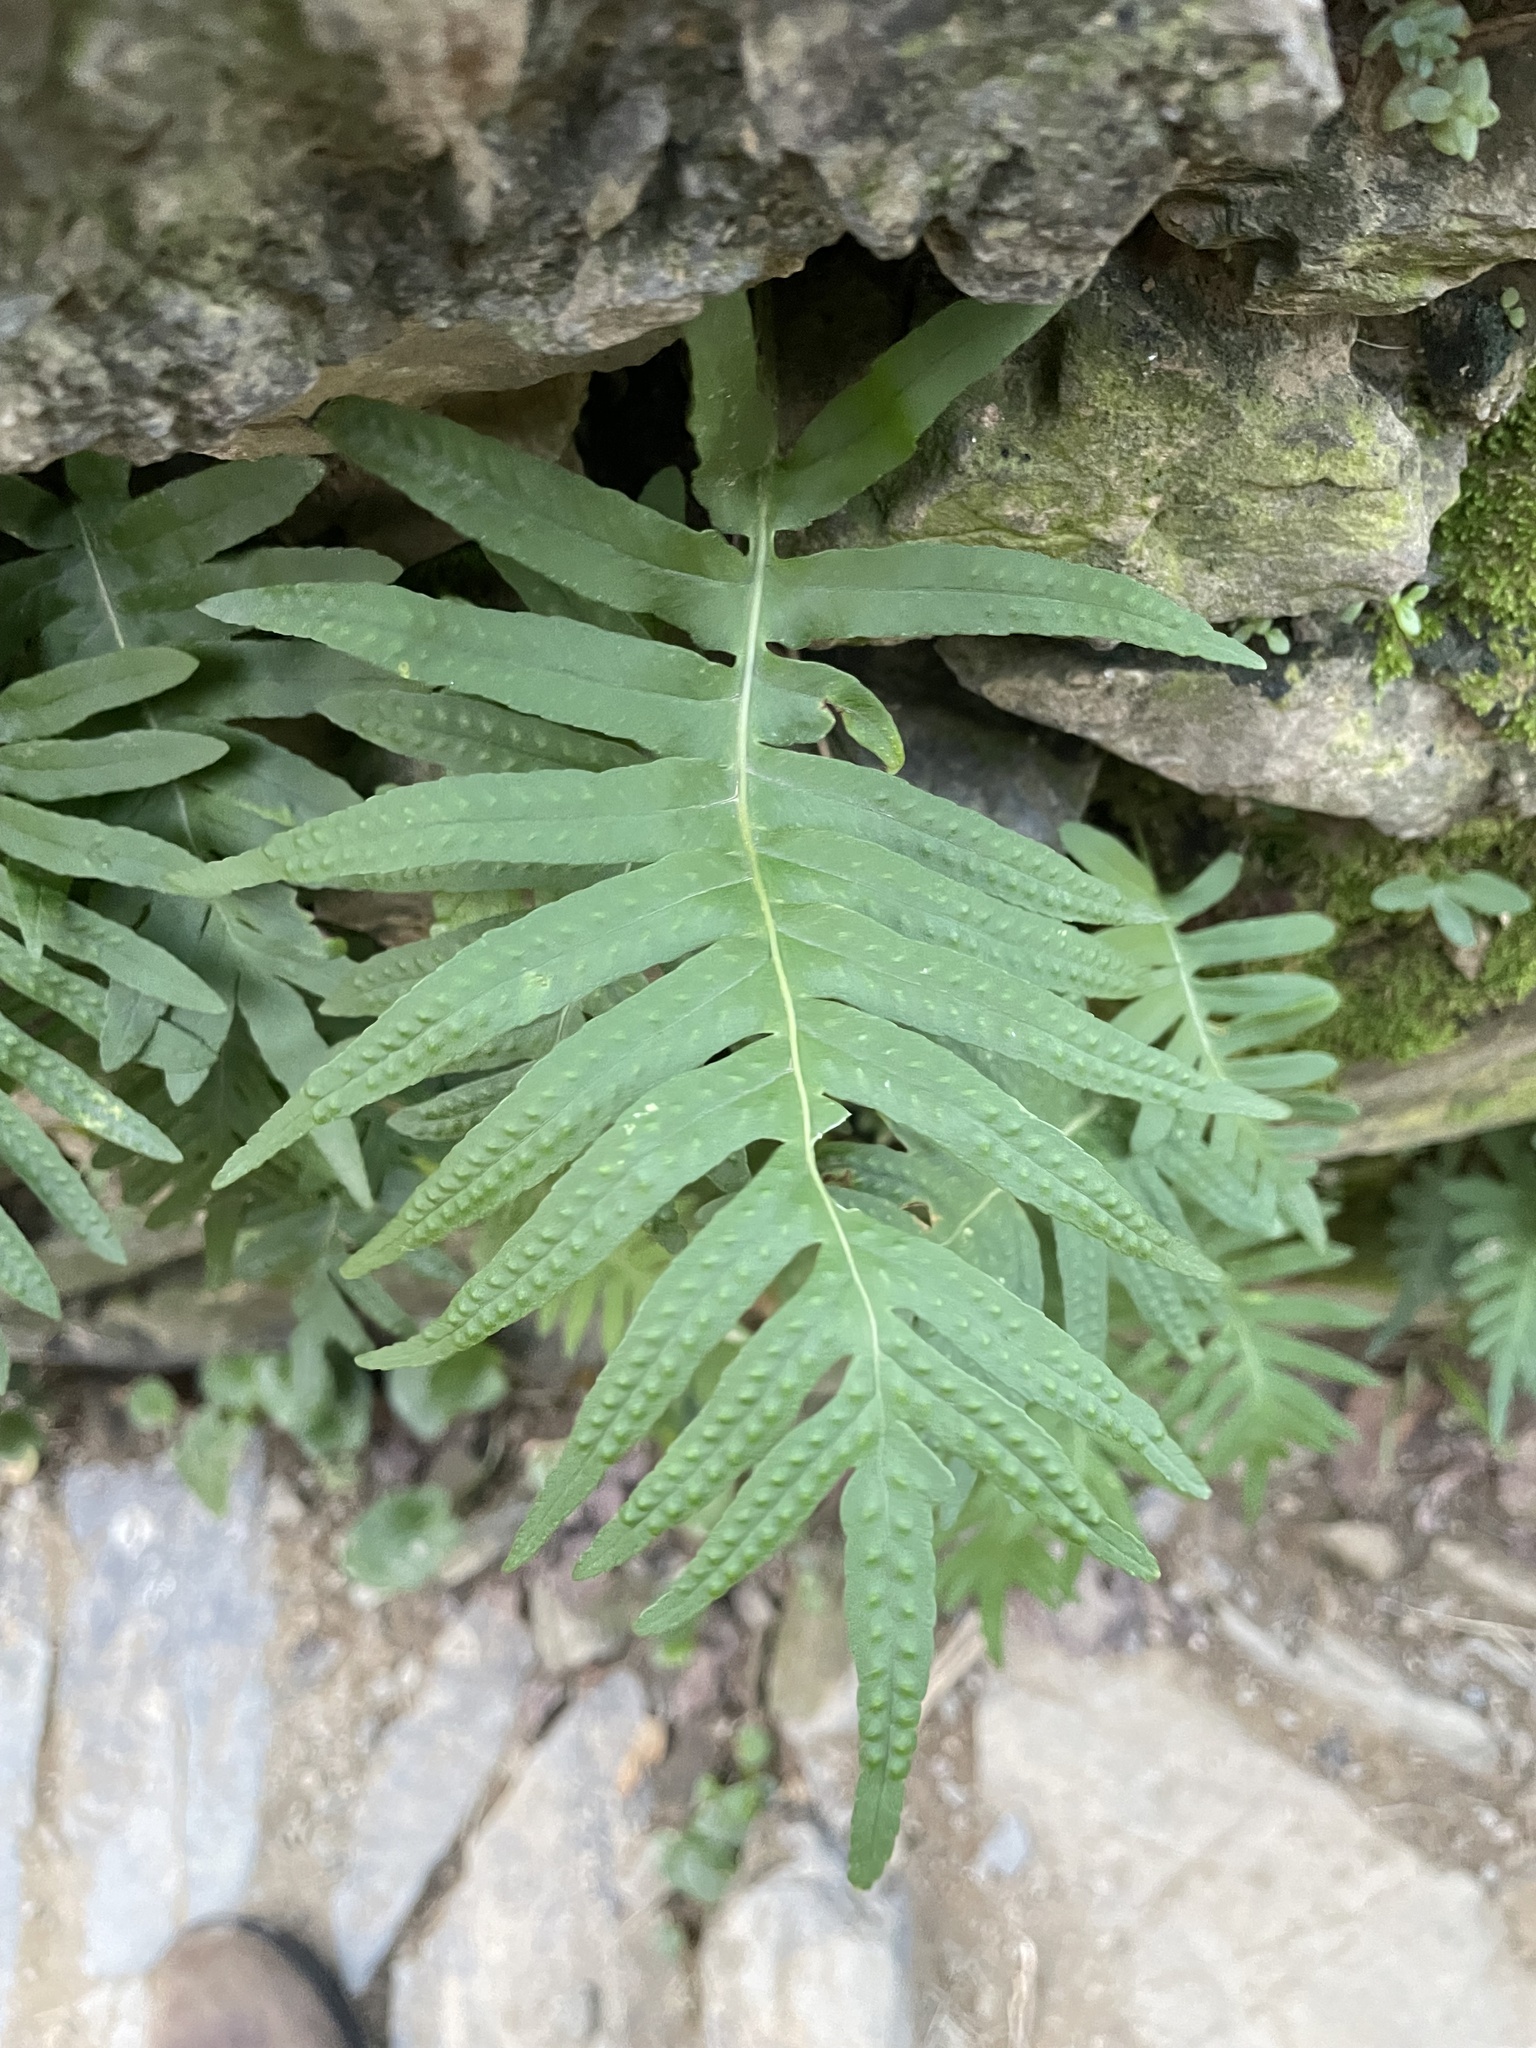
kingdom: Plantae
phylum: Tracheophyta
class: Polypodiopsida
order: Polypodiales
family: Polypodiaceae
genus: Polypodium
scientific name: Polypodium cambricum
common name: Southern polypody
